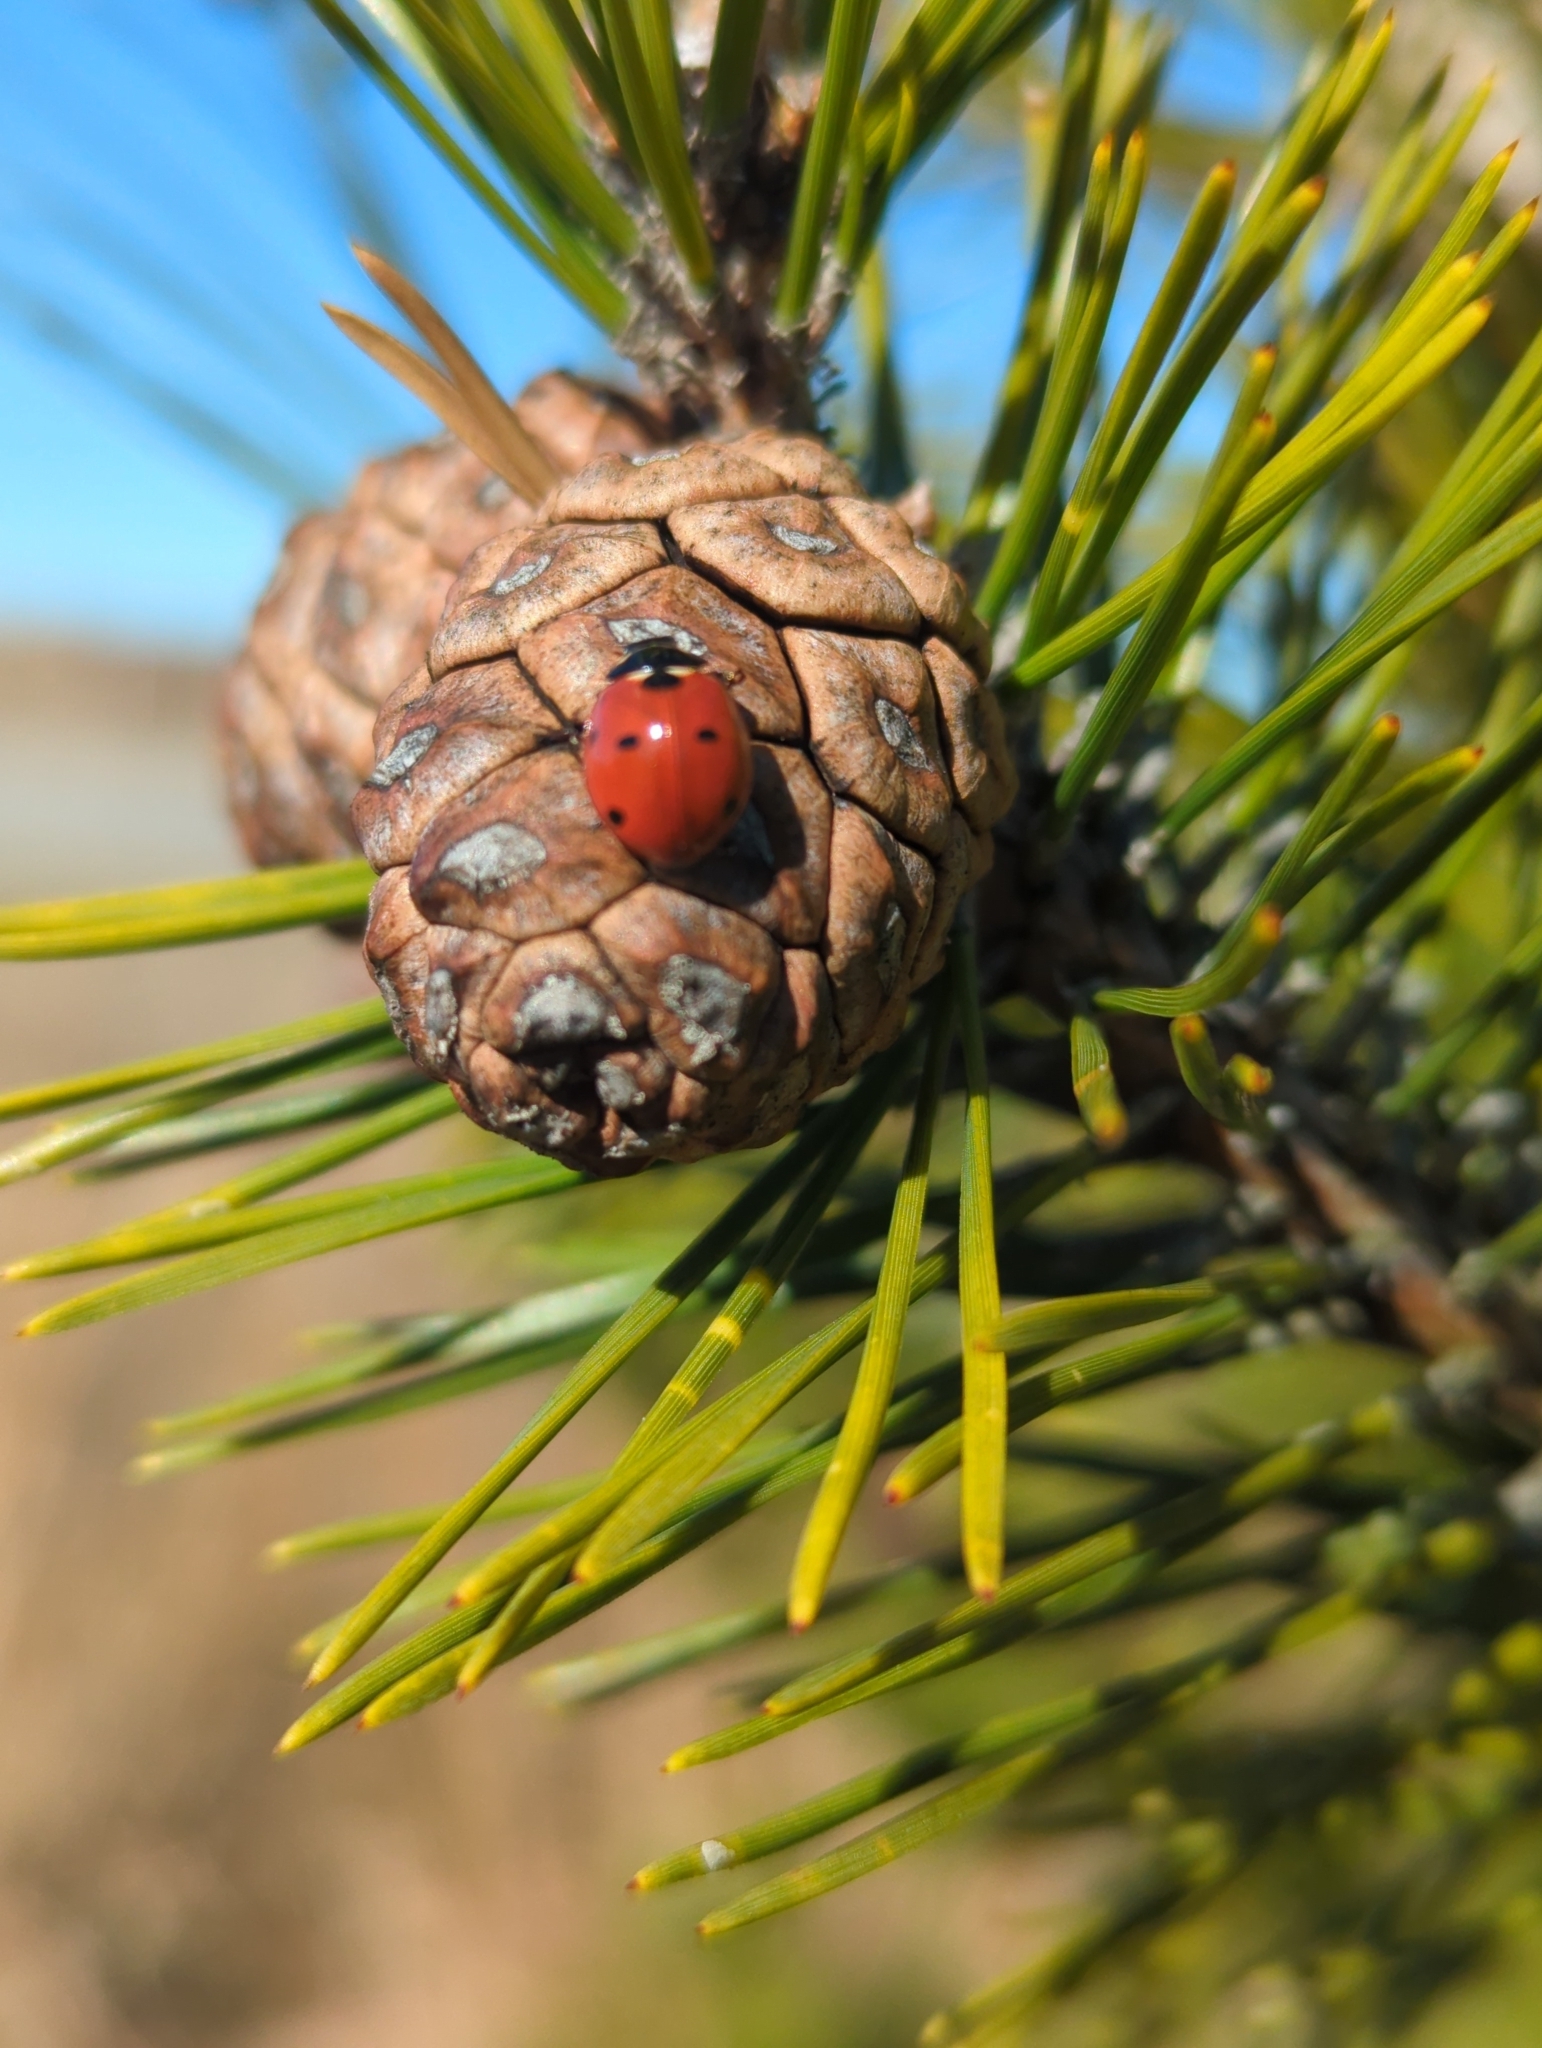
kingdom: Animalia
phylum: Arthropoda
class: Insecta
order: Coleoptera
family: Coccinellidae
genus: Coccinella
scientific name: Coccinella septempunctata
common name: Sevenspotted lady beetle
